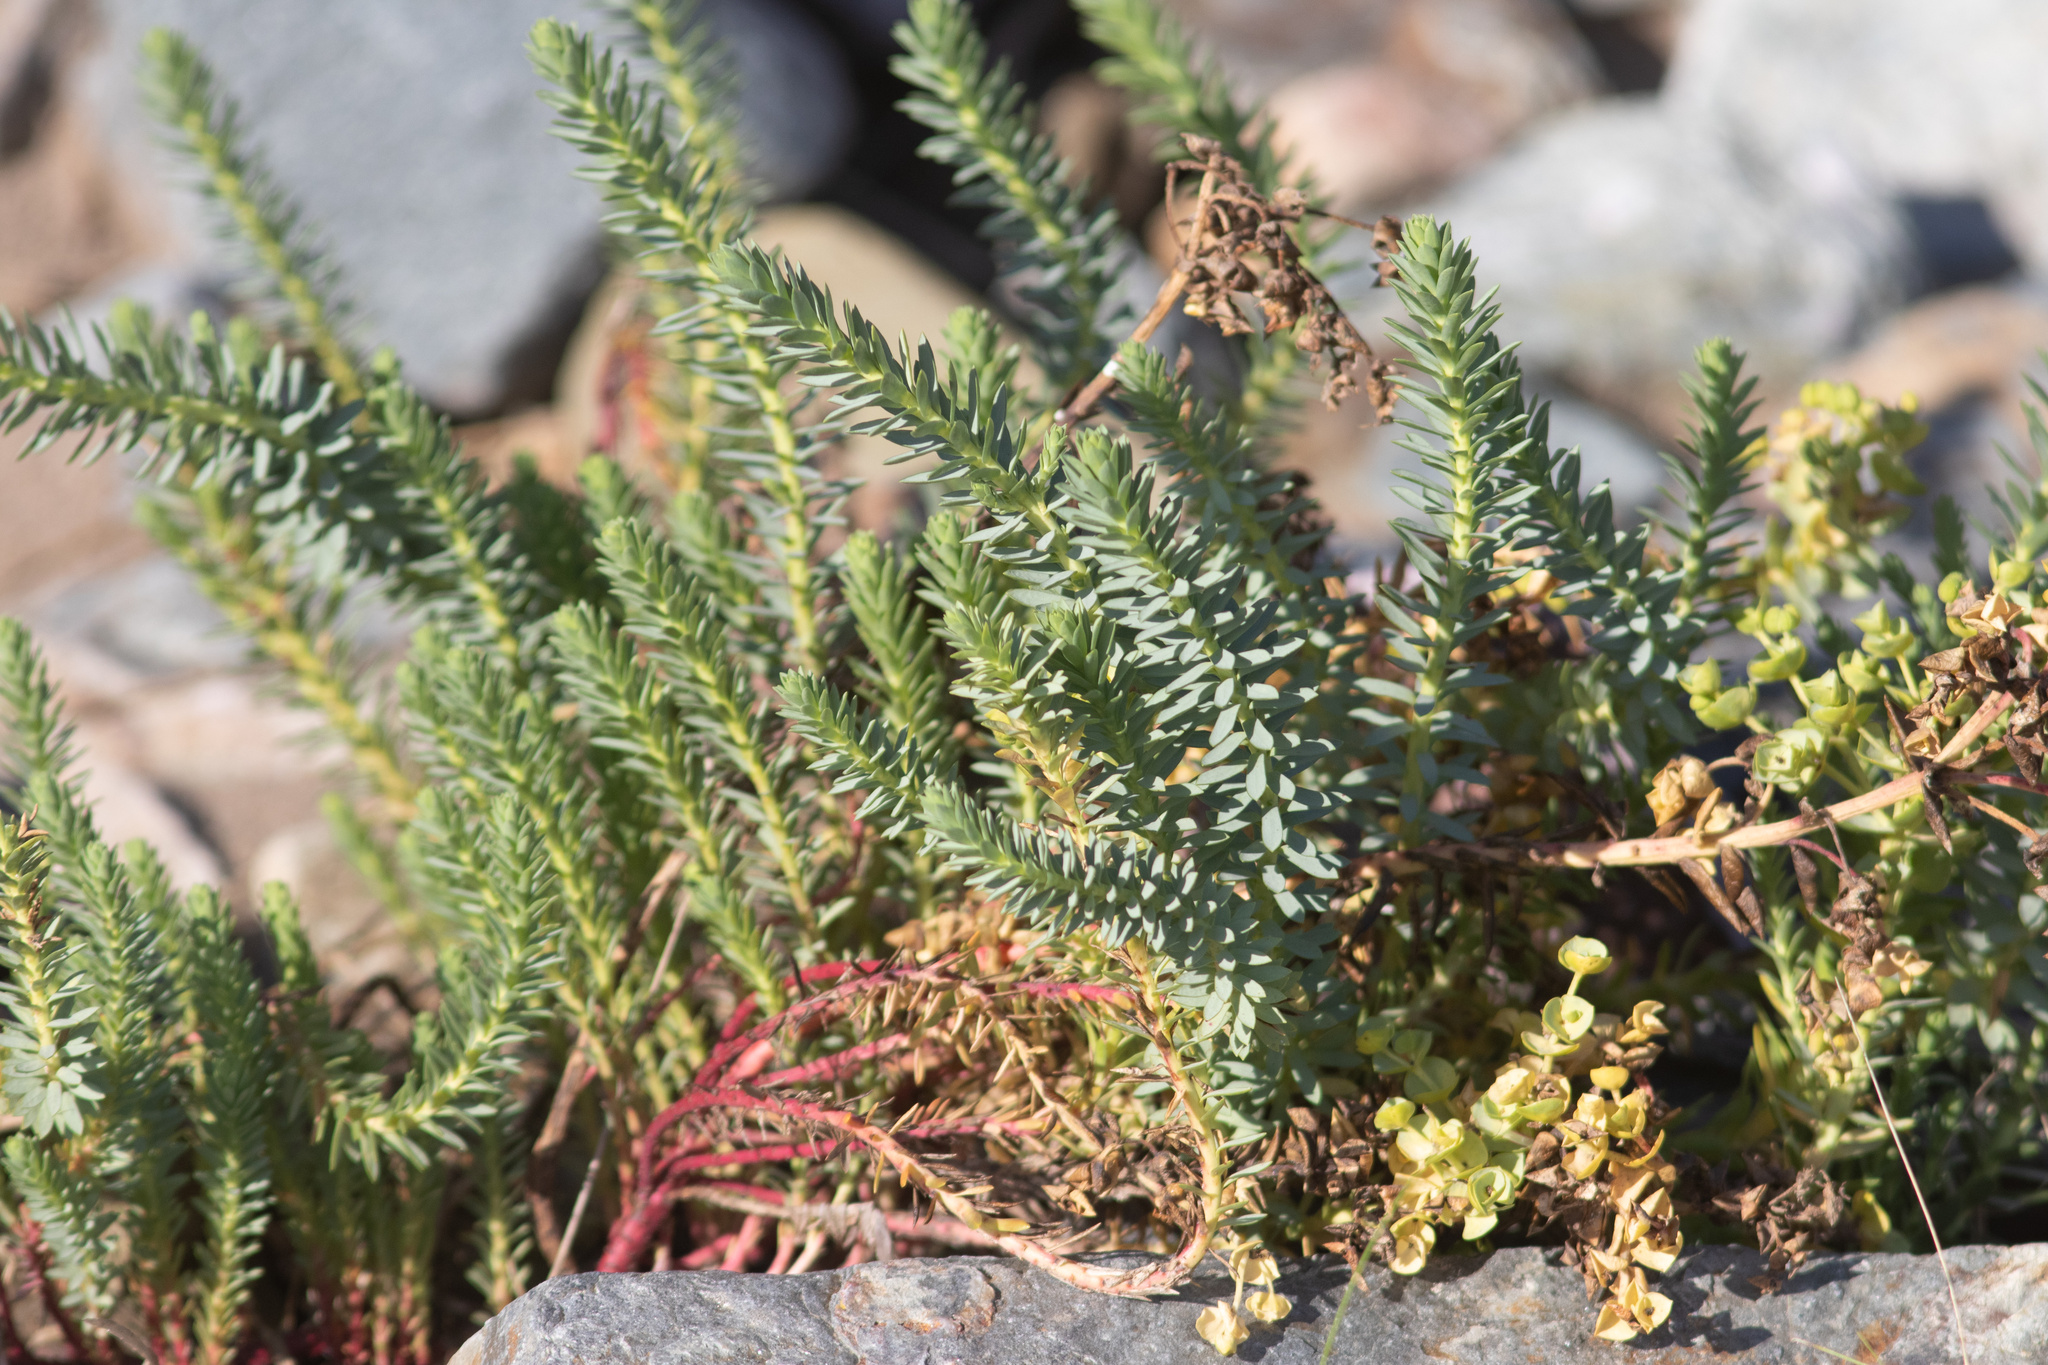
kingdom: Plantae
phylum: Tracheophyta
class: Magnoliopsida
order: Malpighiales
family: Euphorbiaceae
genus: Euphorbia
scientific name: Euphorbia paralias
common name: Sea spurge
